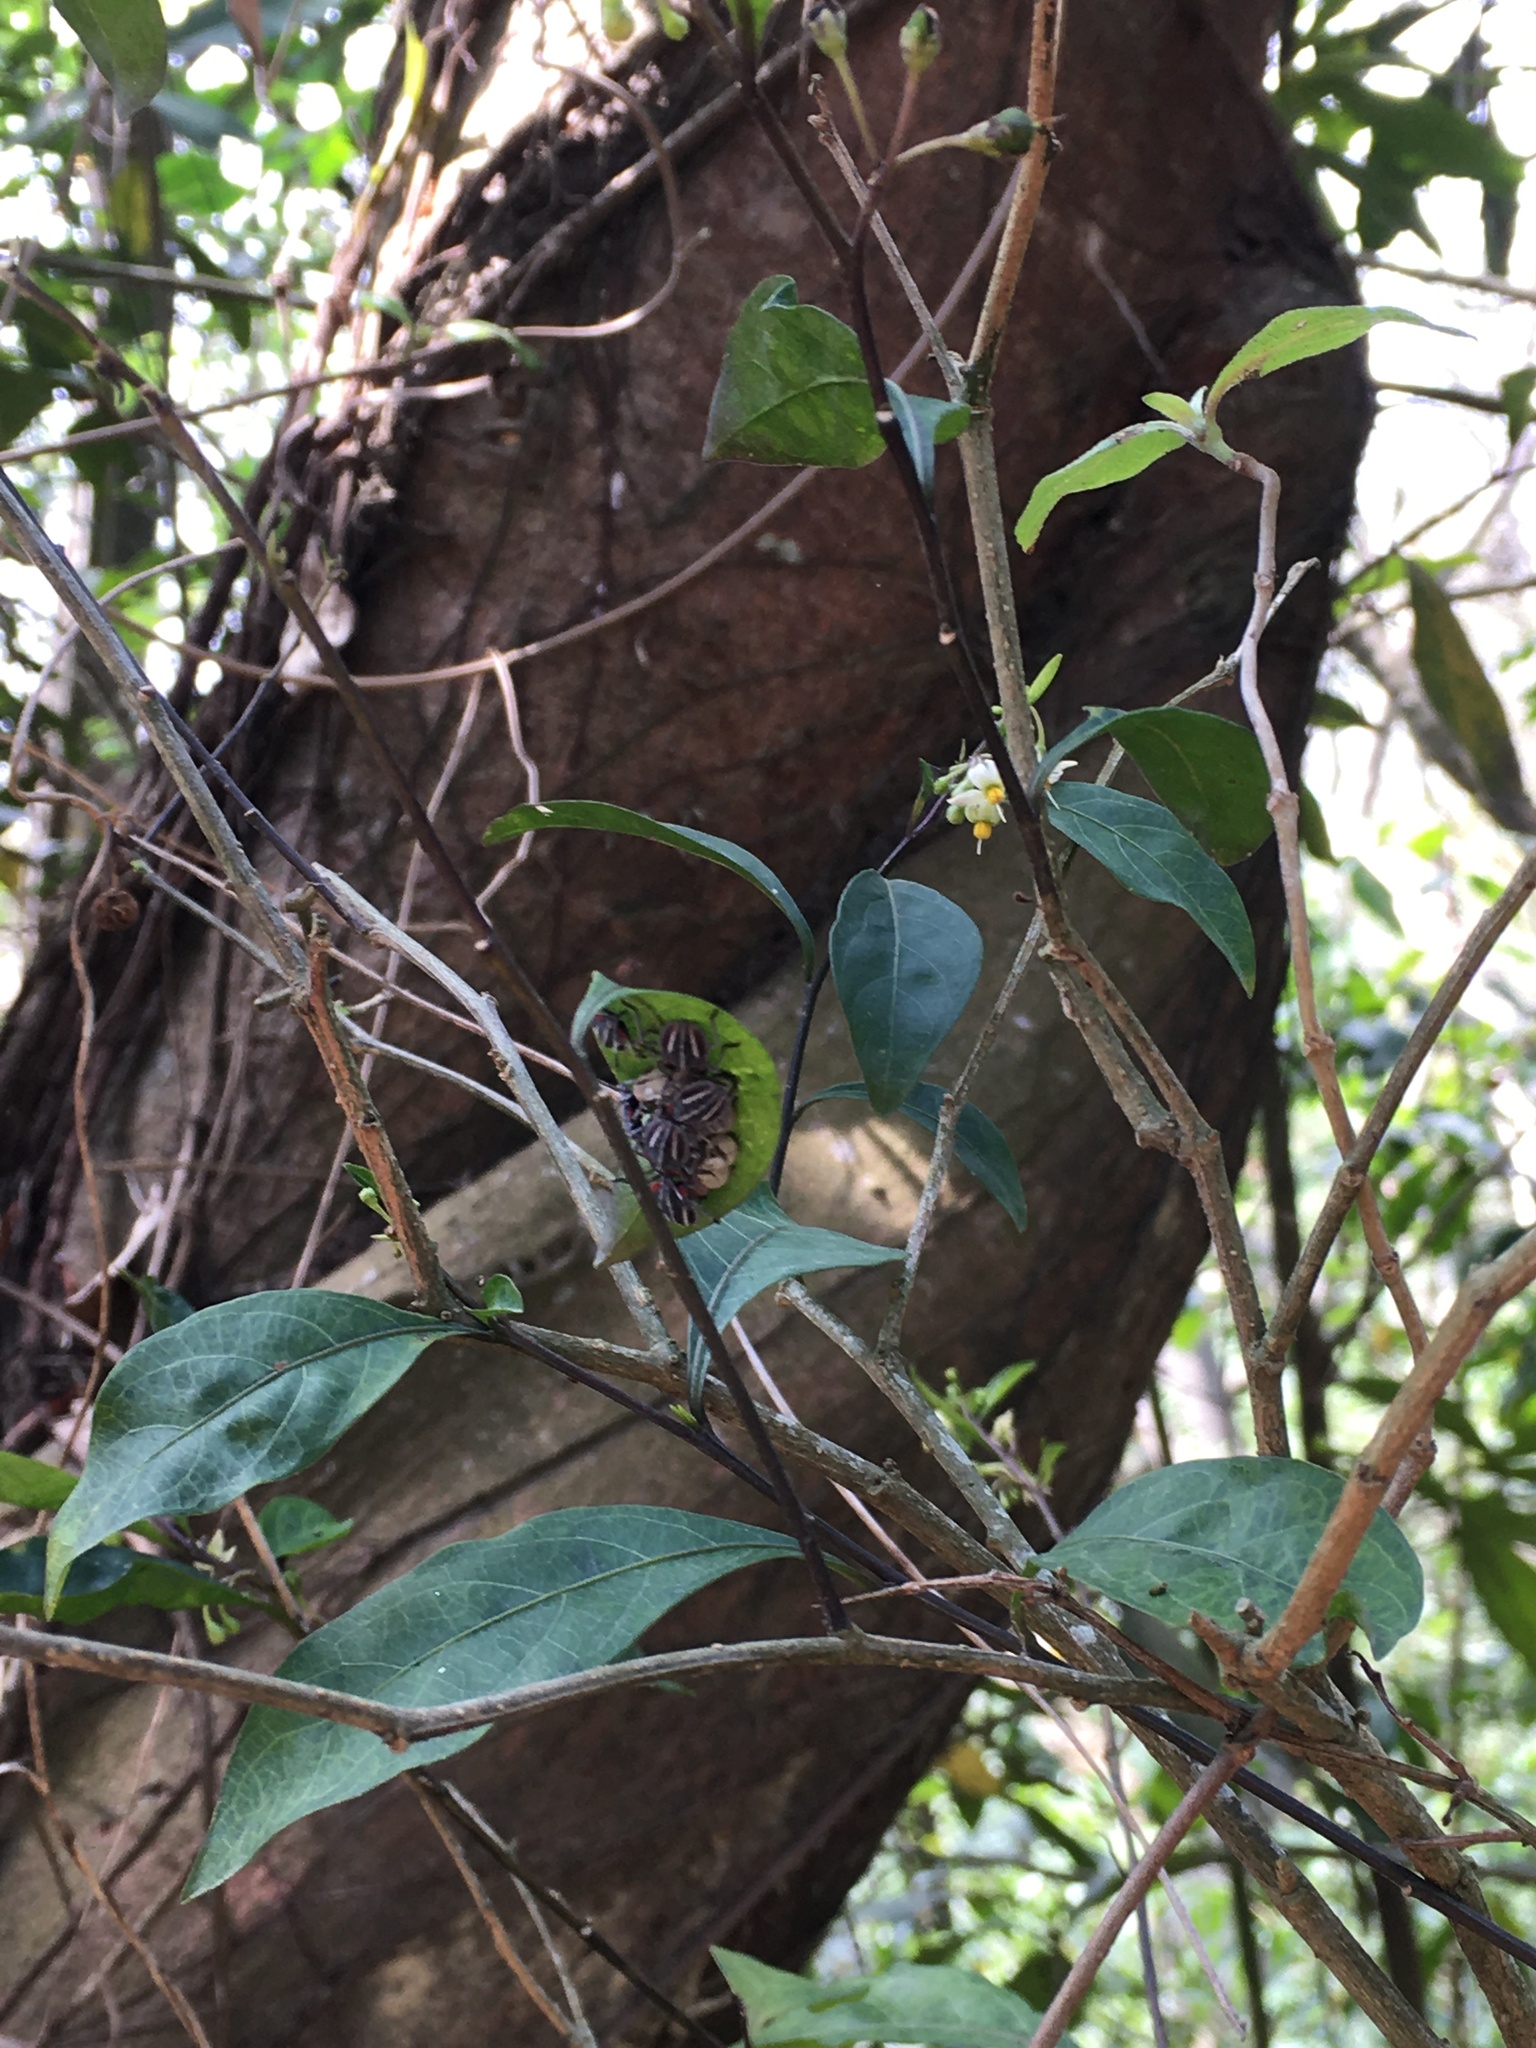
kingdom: Animalia
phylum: Arthropoda
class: Insecta
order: Hemiptera
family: Tessaratomidae
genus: Tessaratoma
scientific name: Tessaratoma papillosa
